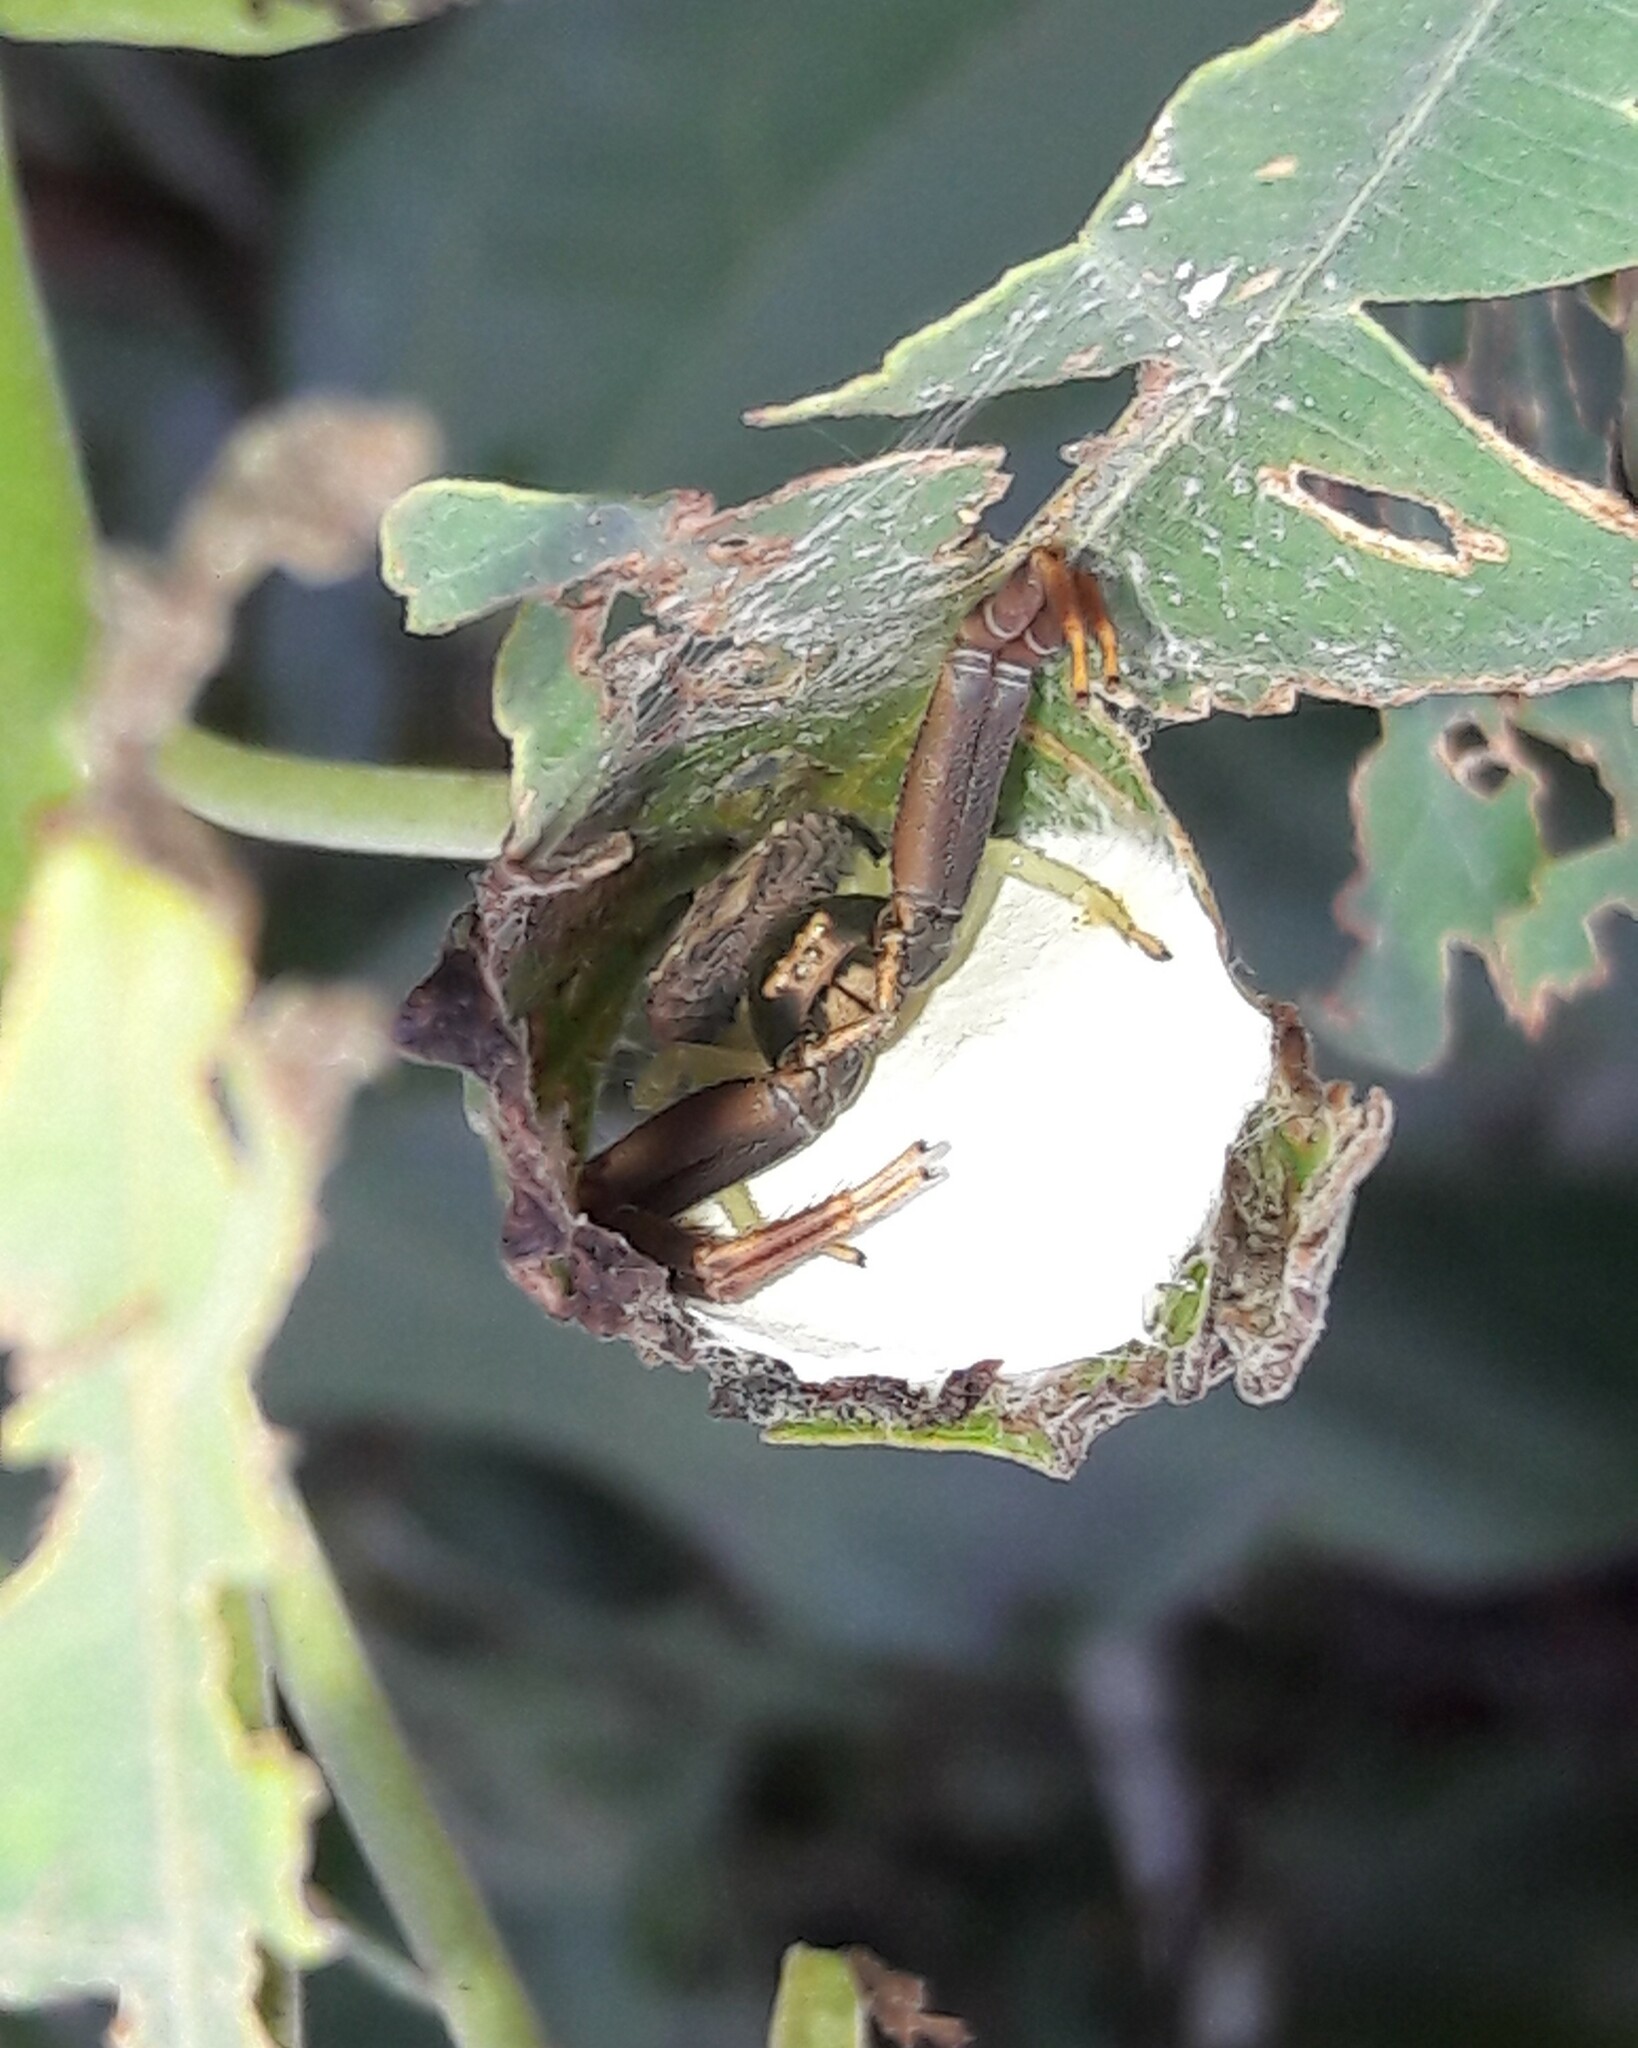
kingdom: Animalia
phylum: Arthropoda
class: Arachnida
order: Araneae
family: Thomisidae
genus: Runcinioides
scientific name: Runcinioides litteratus
